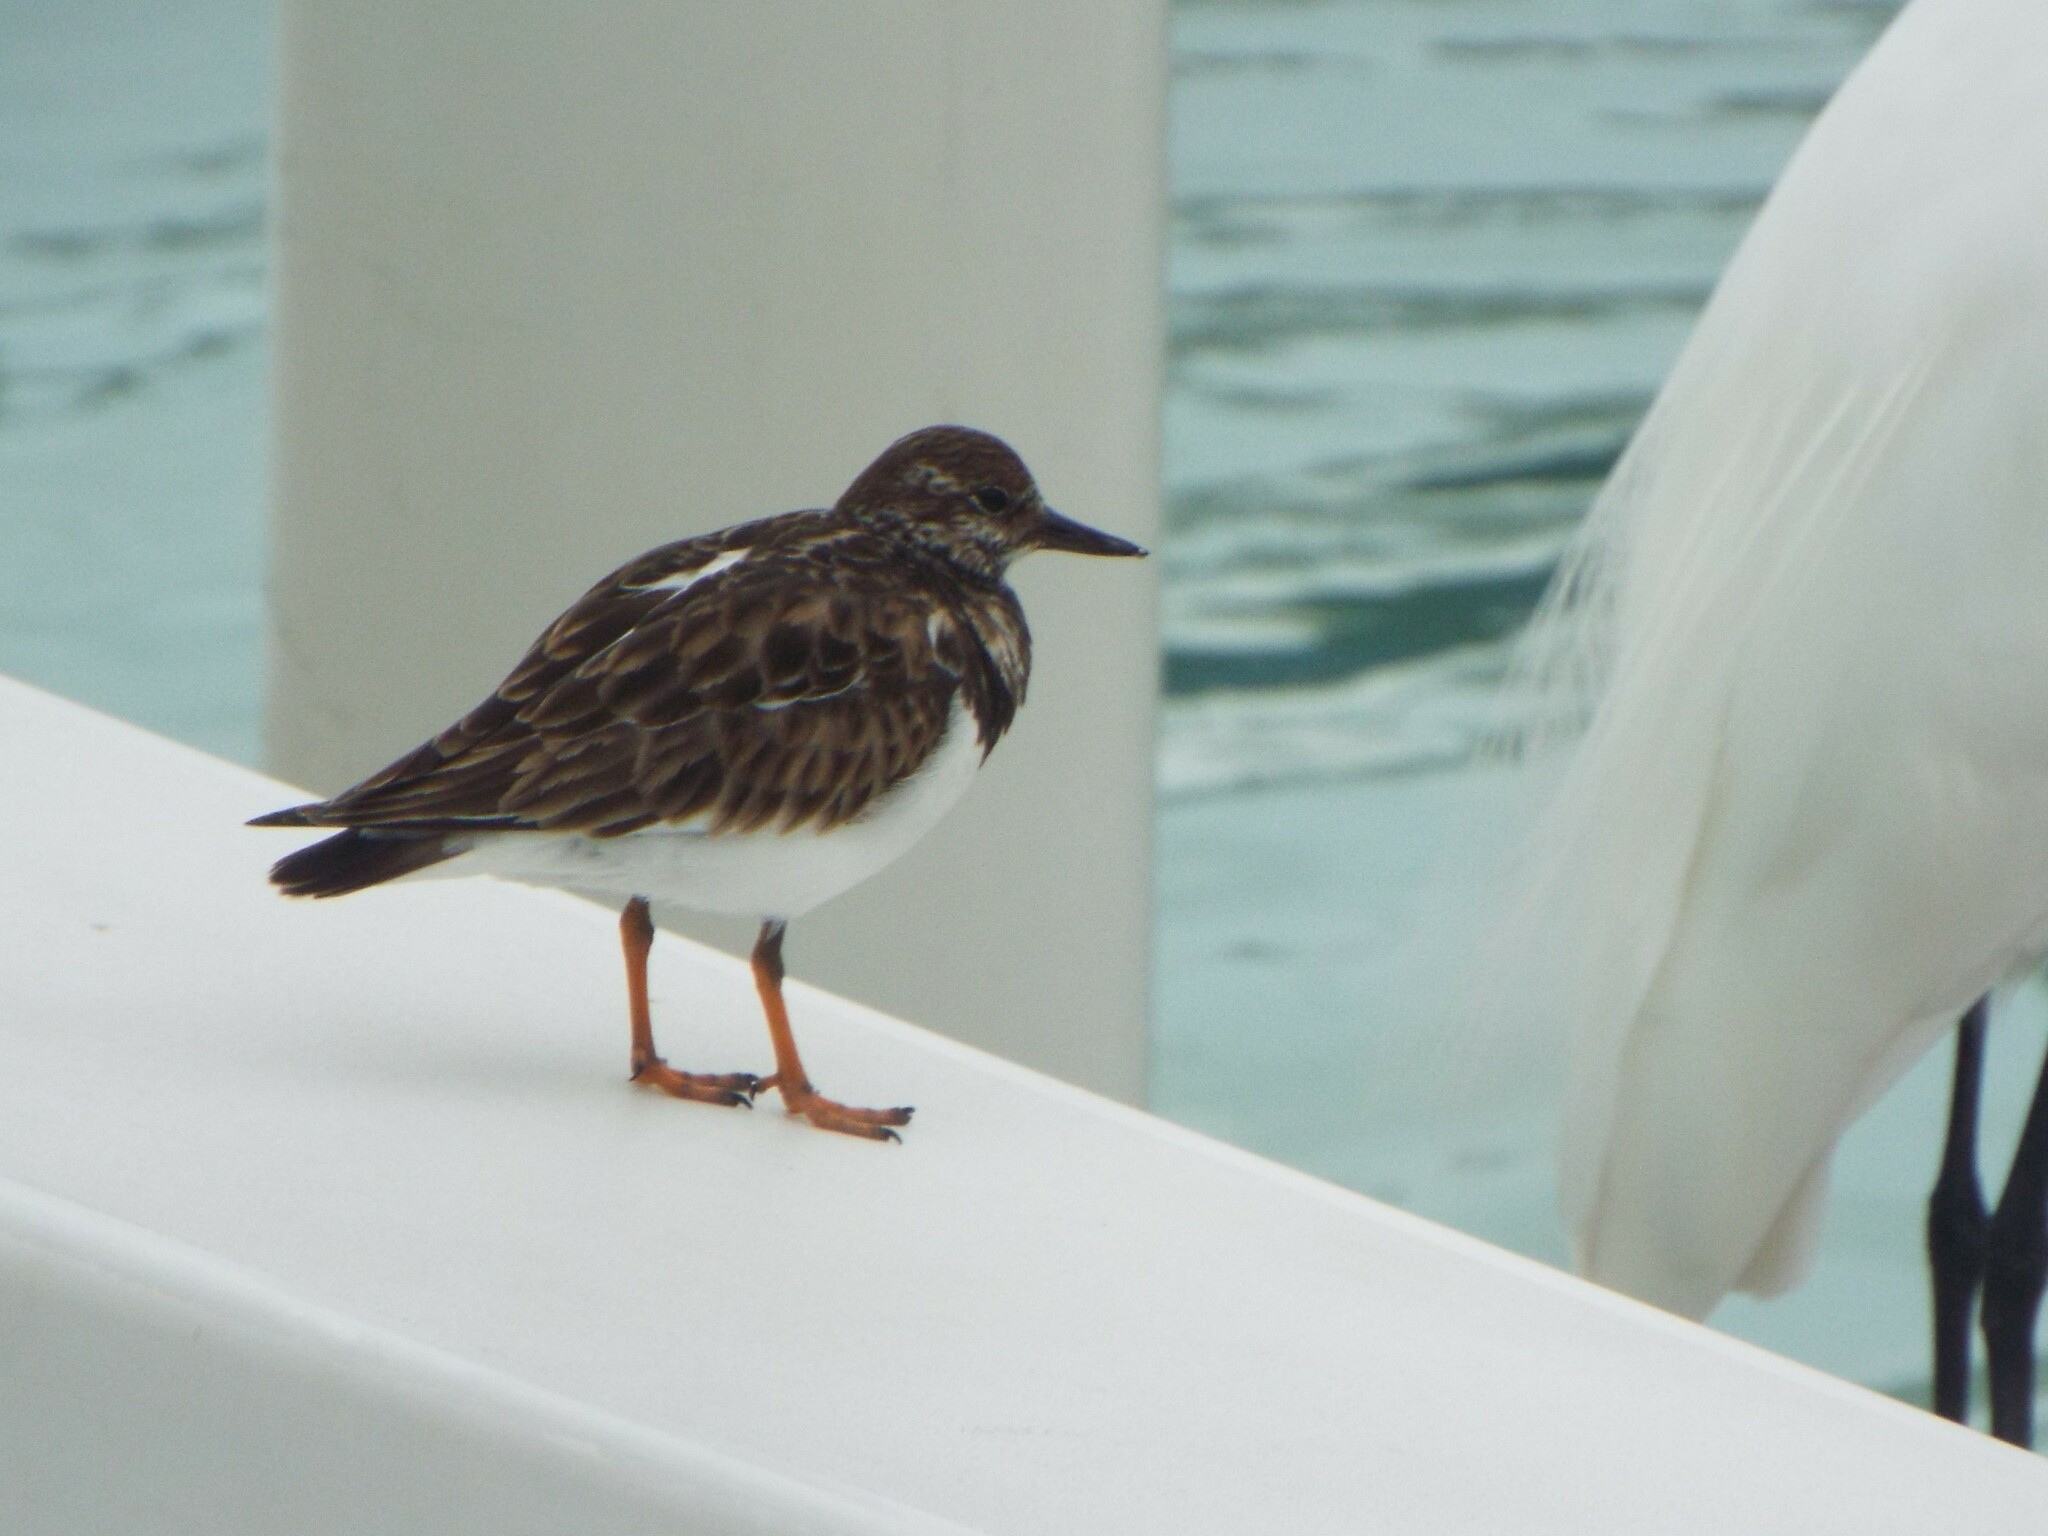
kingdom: Animalia
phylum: Chordata
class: Aves
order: Charadriiformes
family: Scolopacidae
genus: Arenaria
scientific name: Arenaria interpres
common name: Ruddy turnstone
